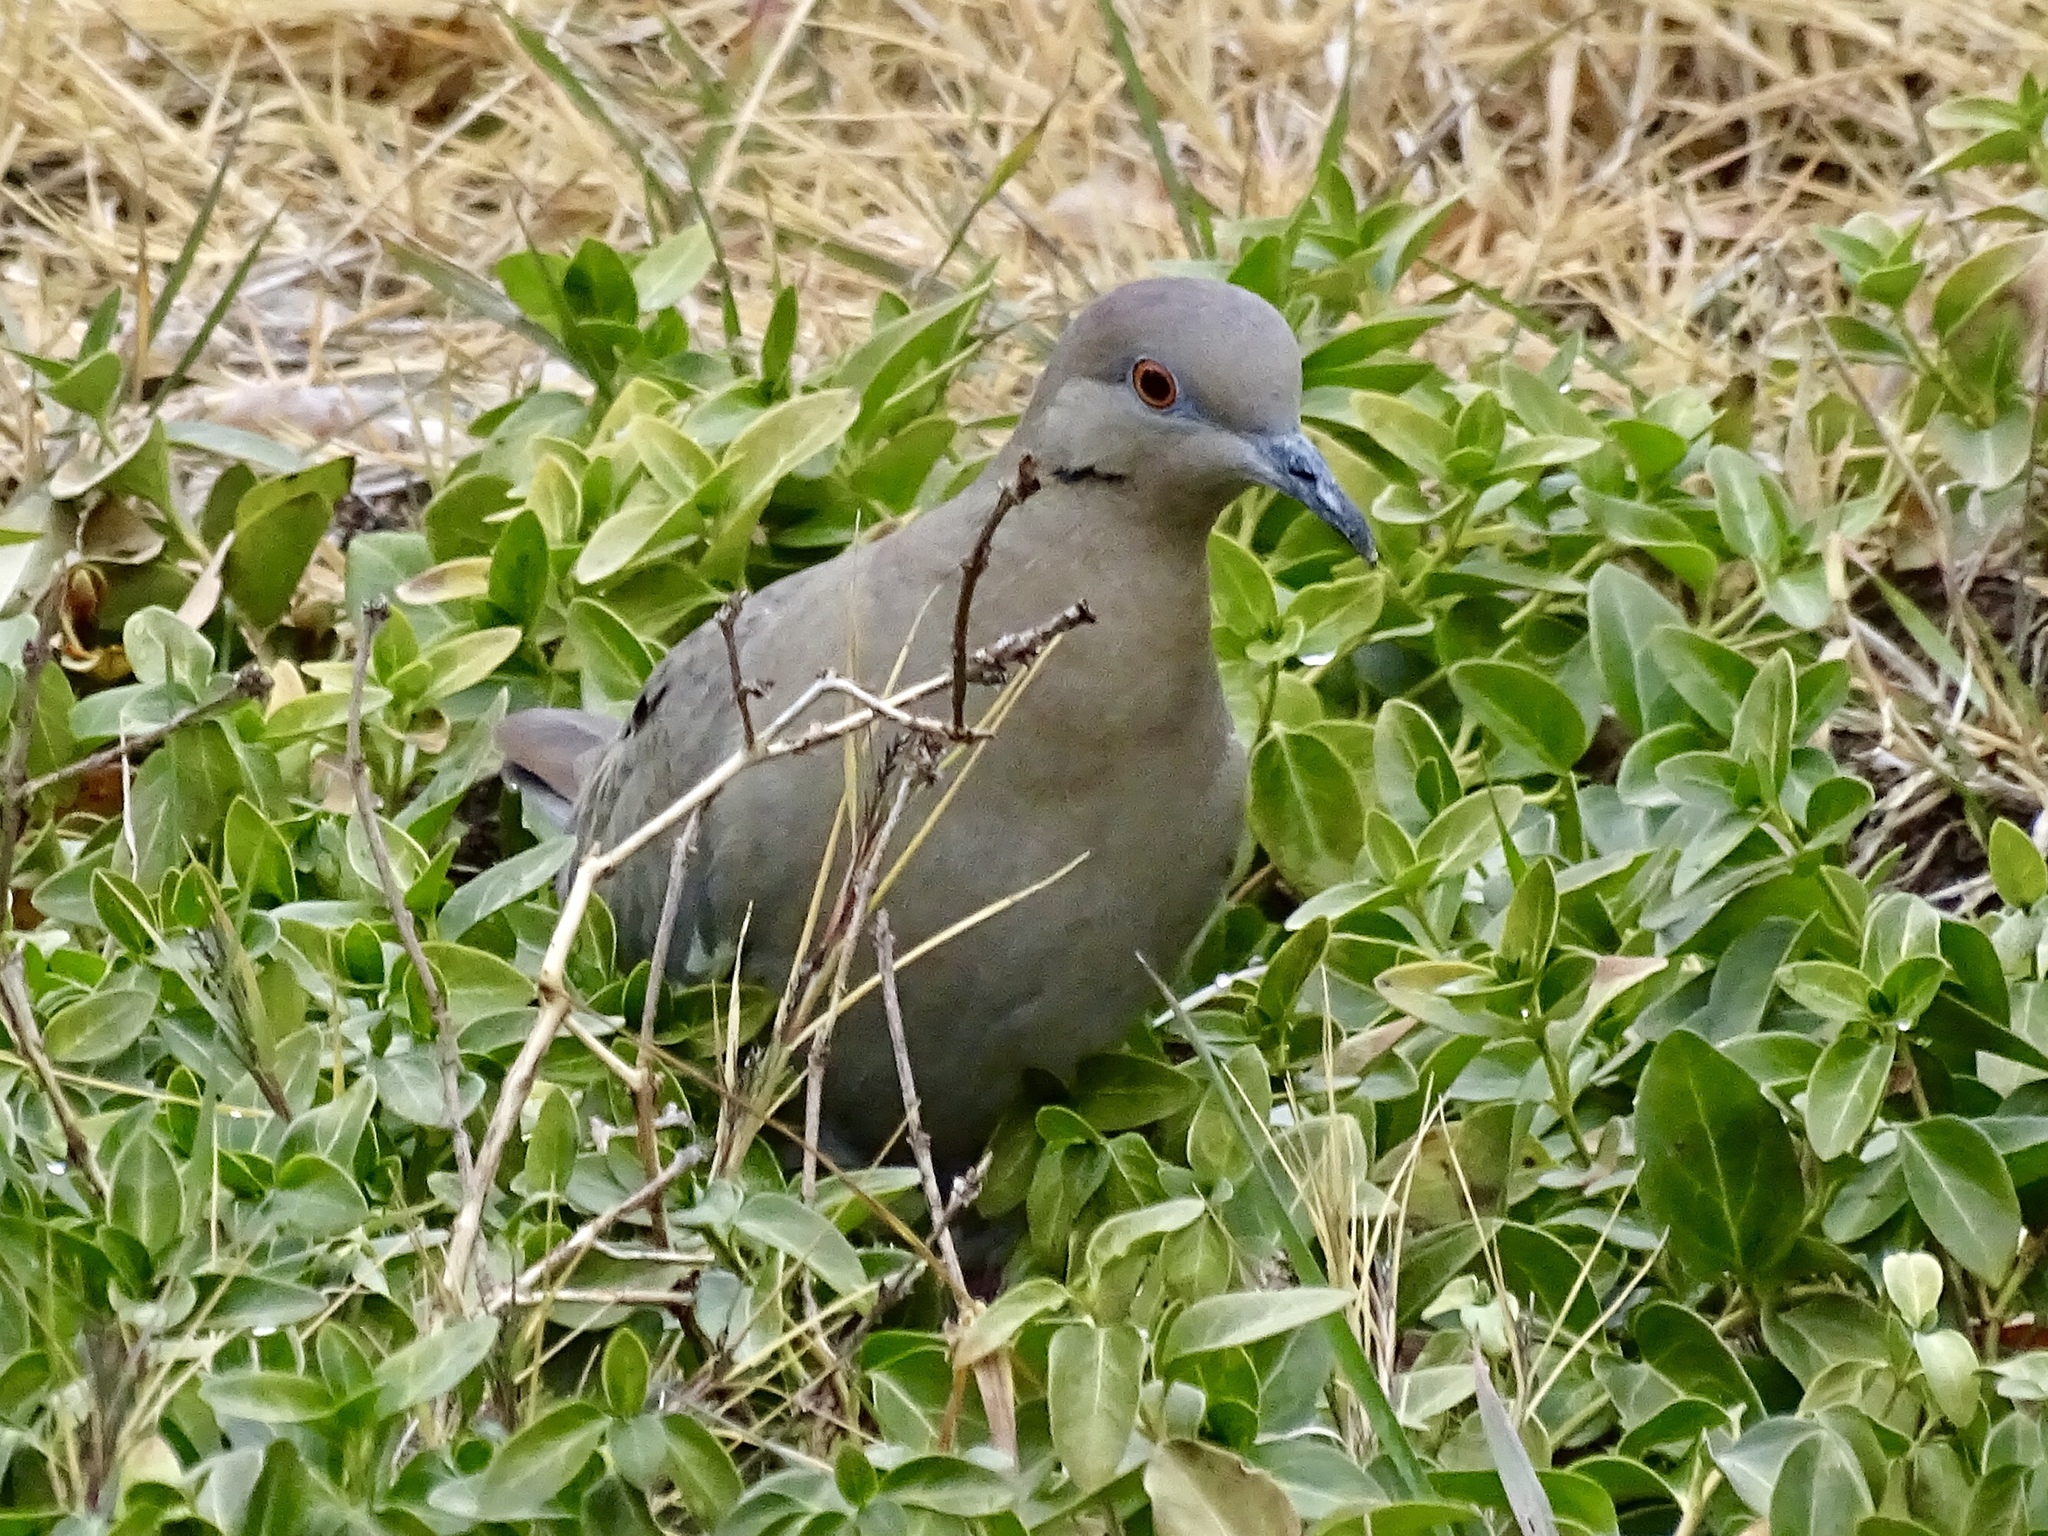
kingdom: Animalia
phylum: Chordata
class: Aves
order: Columbiformes
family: Columbidae
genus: Zenaida
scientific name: Zenaida asiatica
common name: White-winged dove
